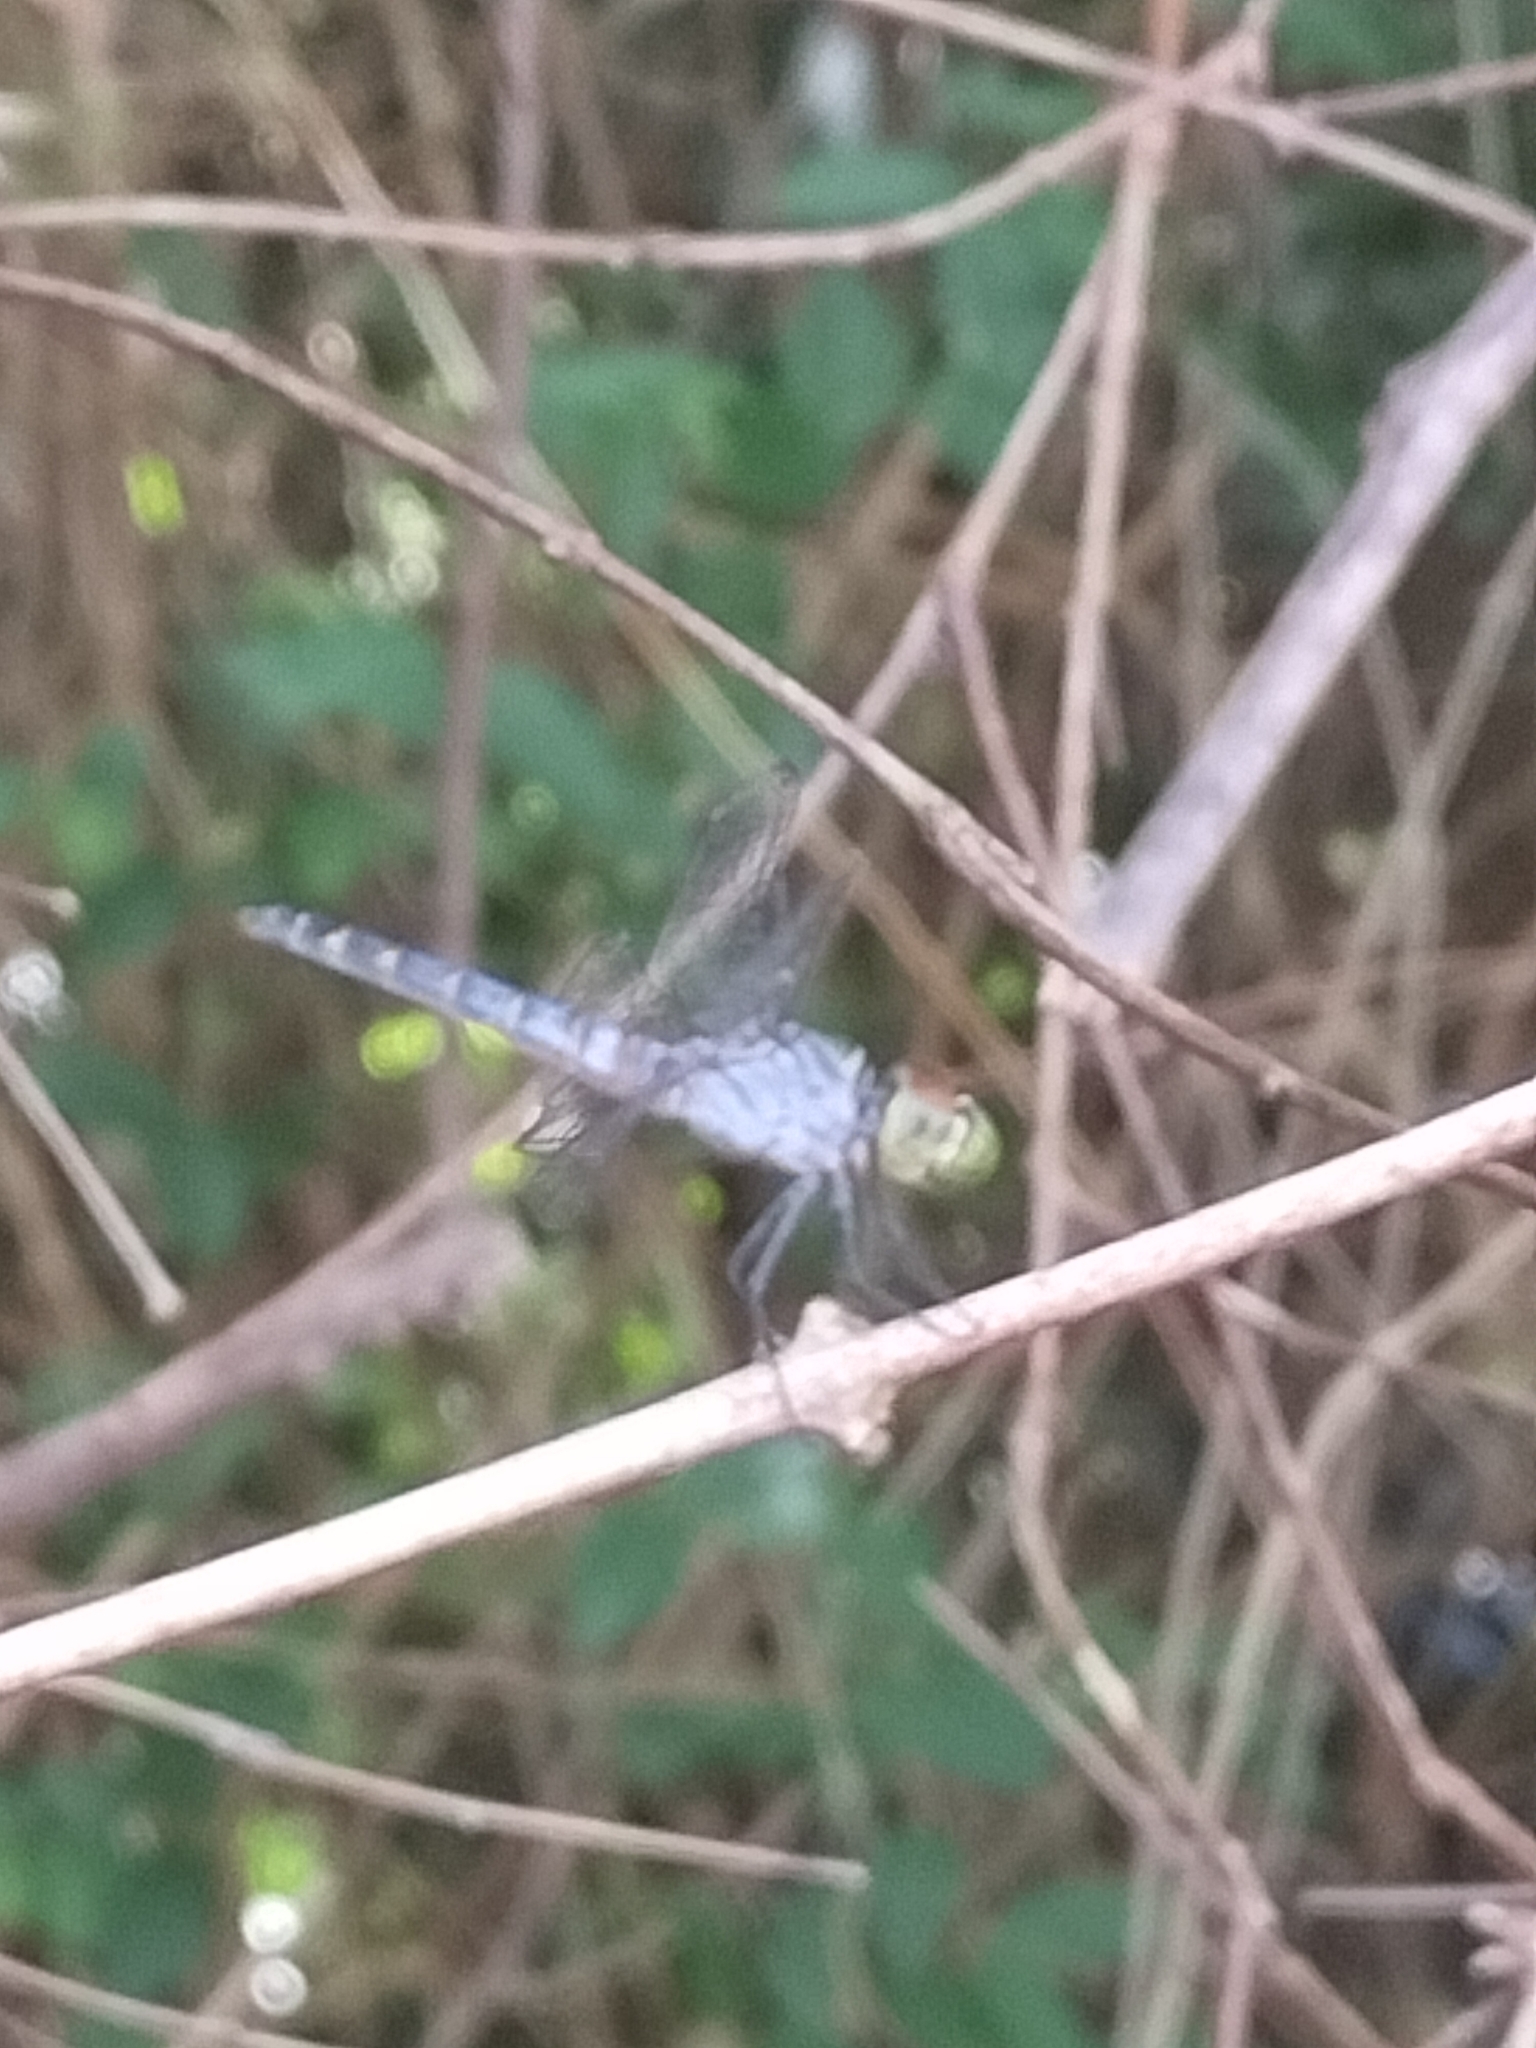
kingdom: Animalia
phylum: Arthropoda
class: Insecta
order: Odonata
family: Libellulidae
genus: Brachydiplax
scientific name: Brachydiplax denticauda
